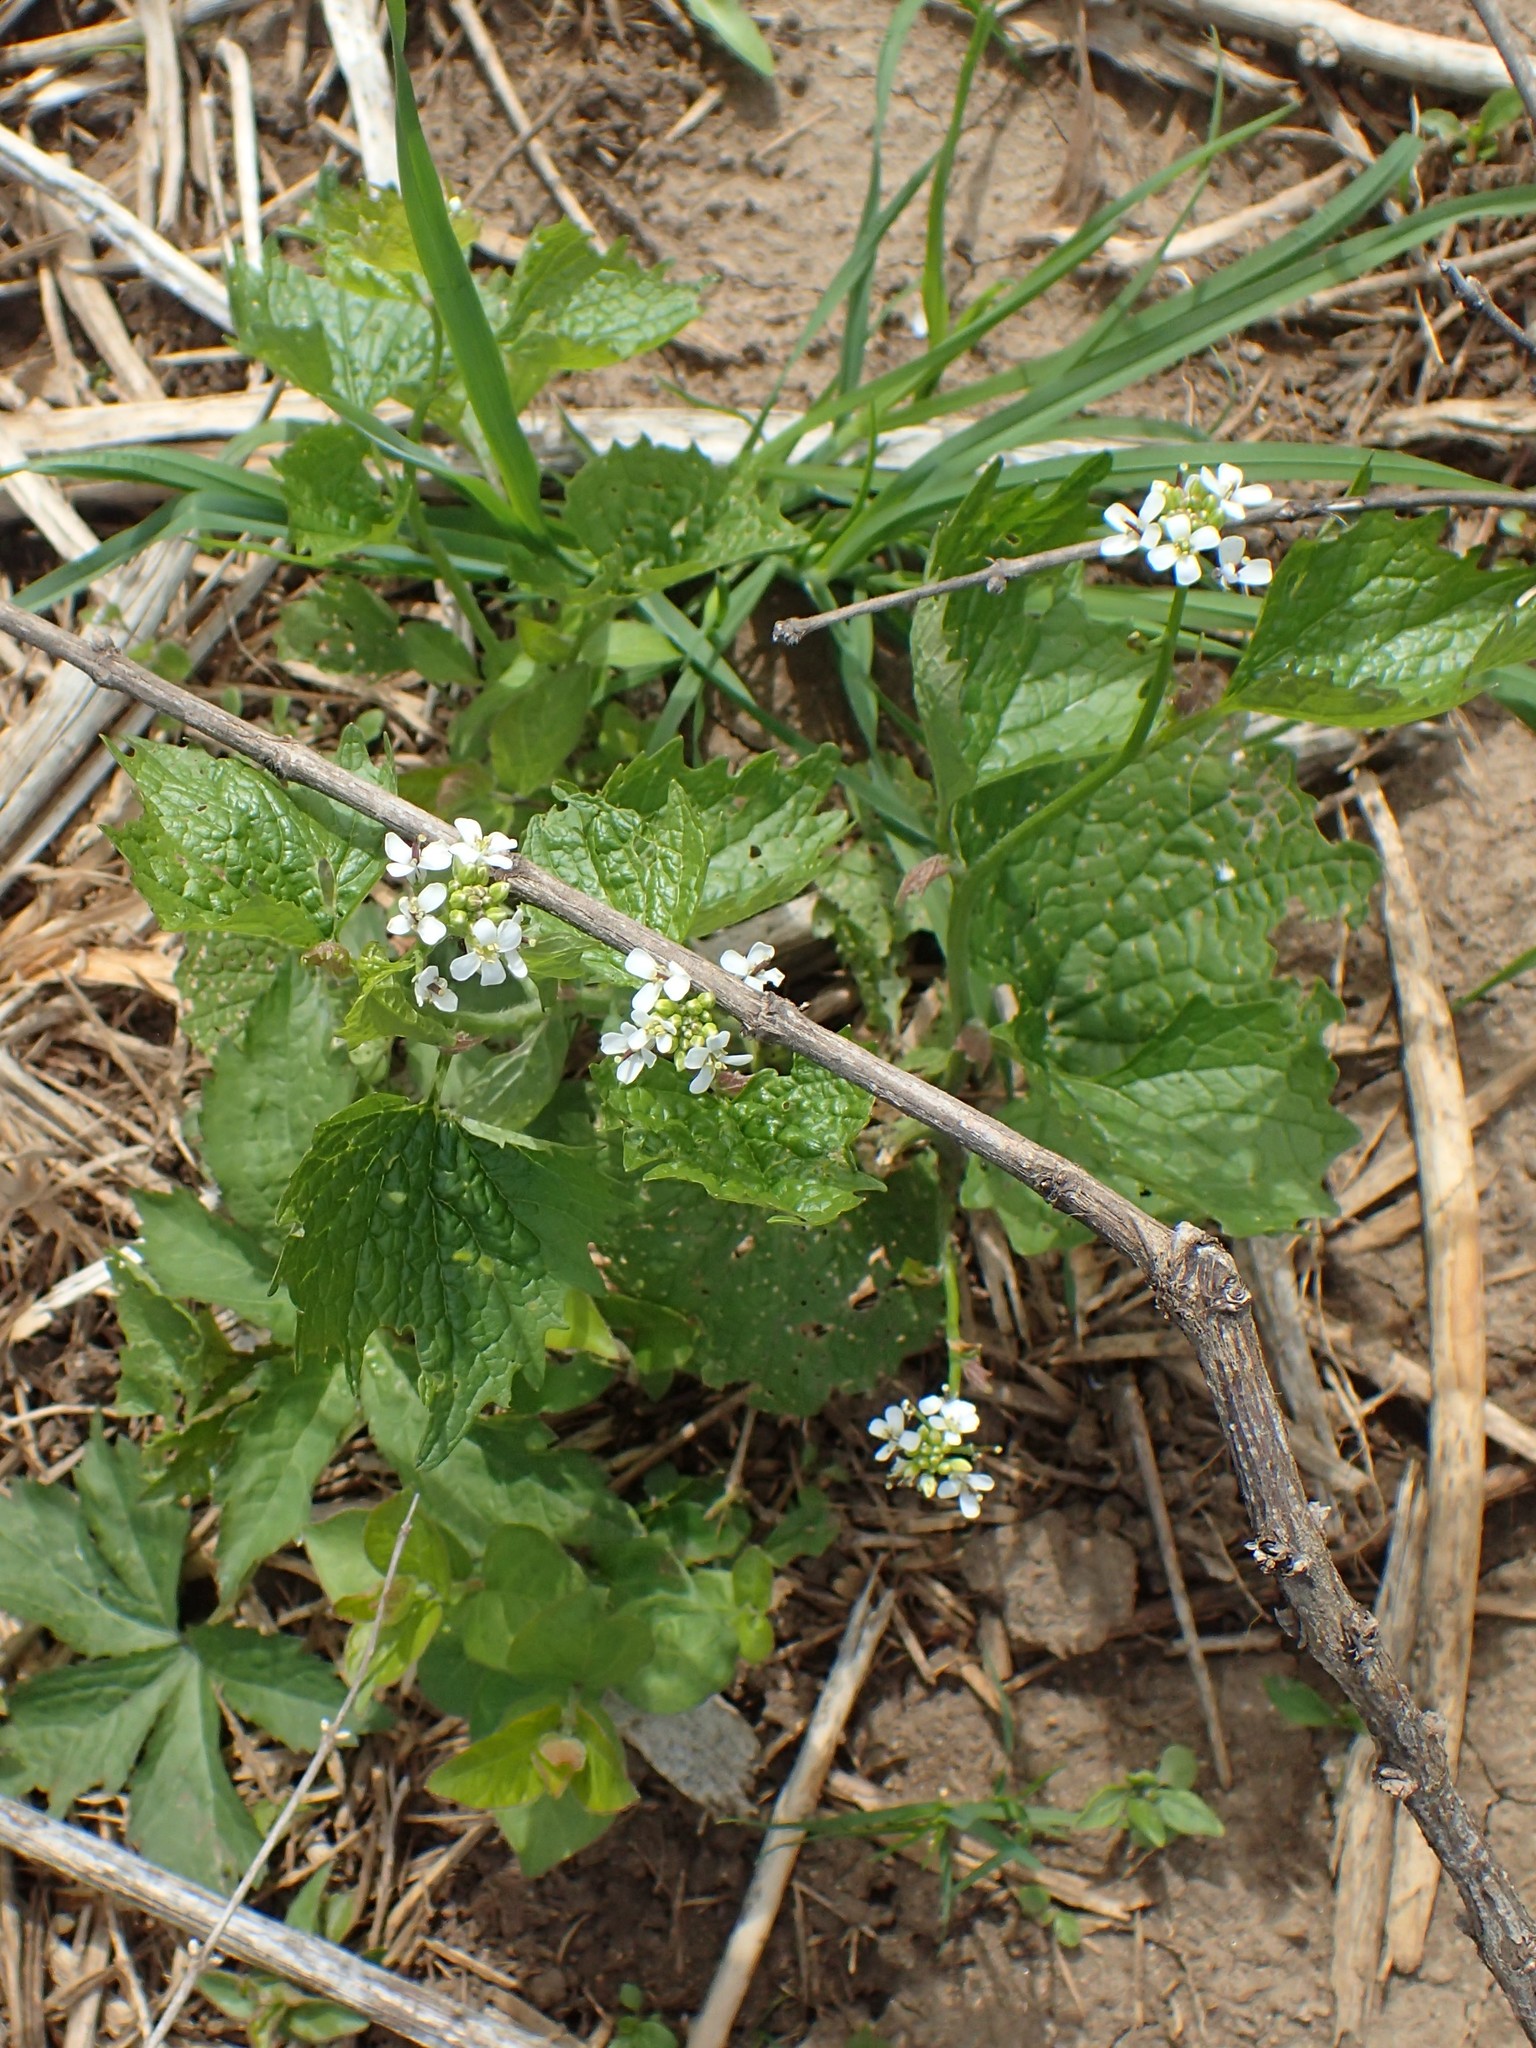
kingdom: Plantae
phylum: Tracheophyta
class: Magnoliopsida
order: Brassicales
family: Brassicaceae
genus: Alliaria
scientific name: Alliaria petiolata
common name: Garlic mustard
